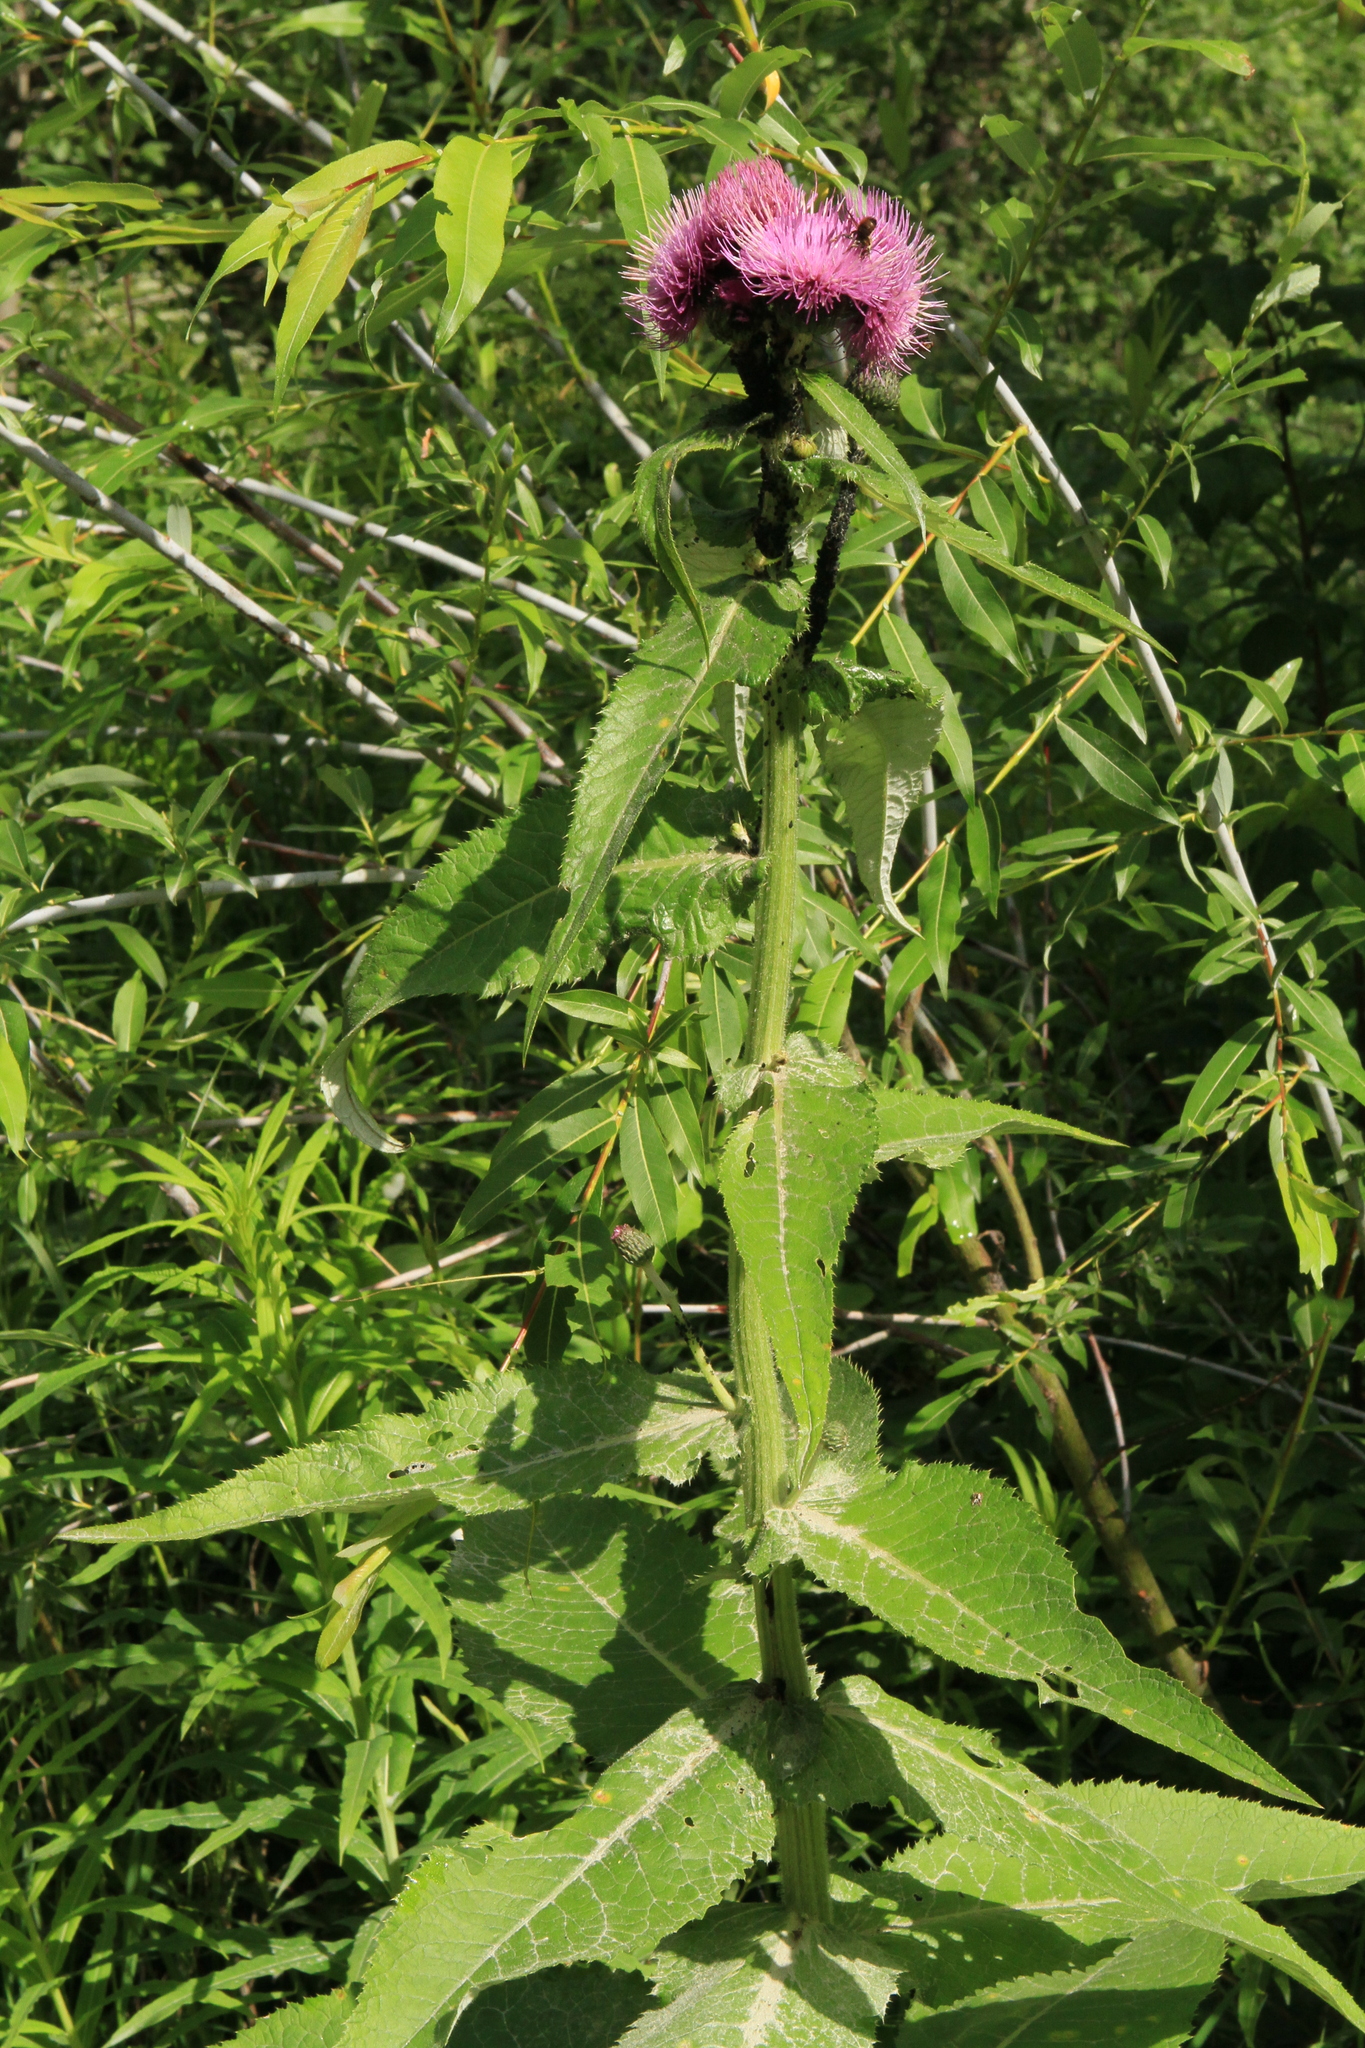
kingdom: Plantae
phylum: Tracheophyta
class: Magnoliopsida
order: Asterales
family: Asteraceae
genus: Cirsium
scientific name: Cirsium helenioides
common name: Melancholy thistle
